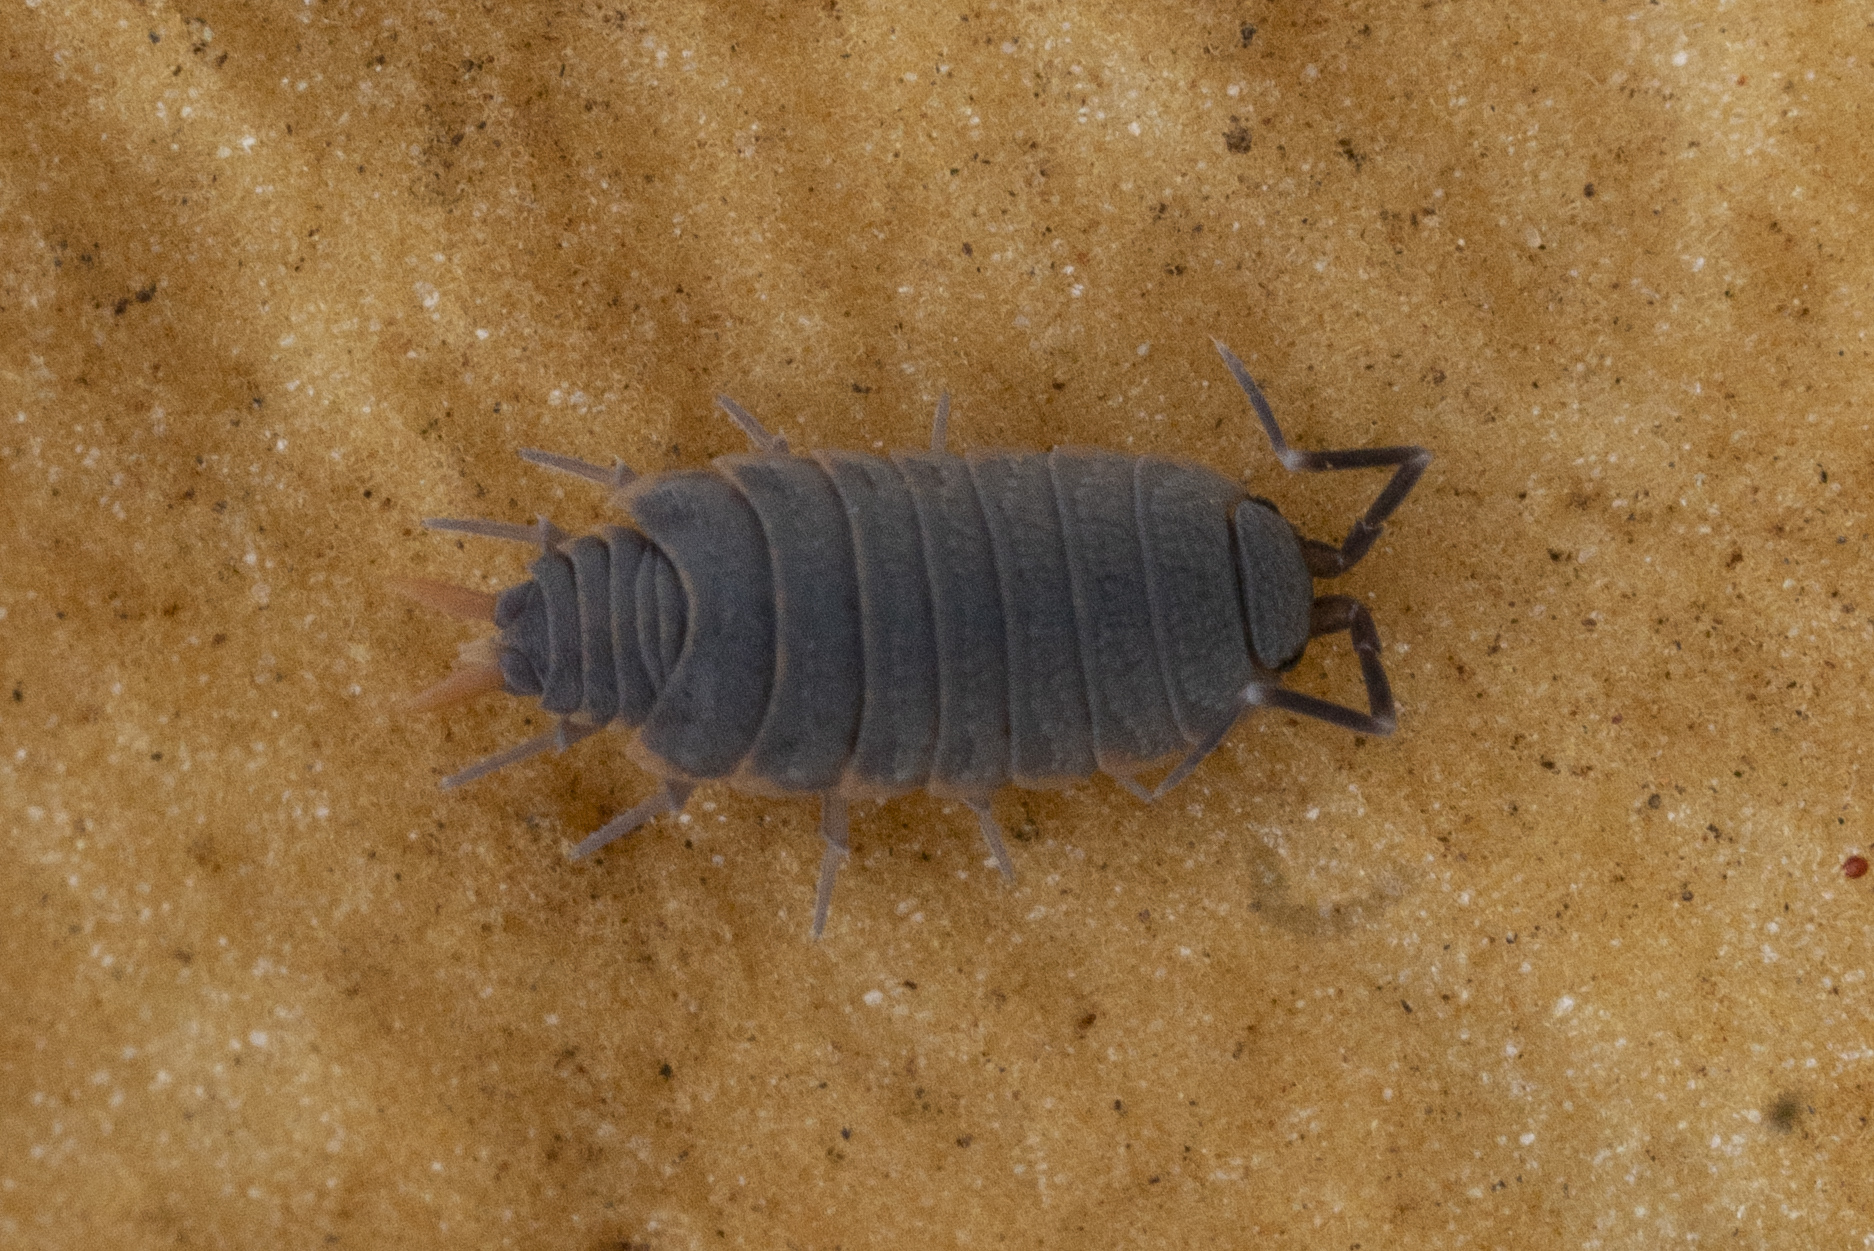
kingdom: Animalia
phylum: Arthropoda
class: Malacostraca
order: Isopoda
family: Porcellionidae
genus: Porcellionides
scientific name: Porcellionides pruinosus
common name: Plum woodlouse
